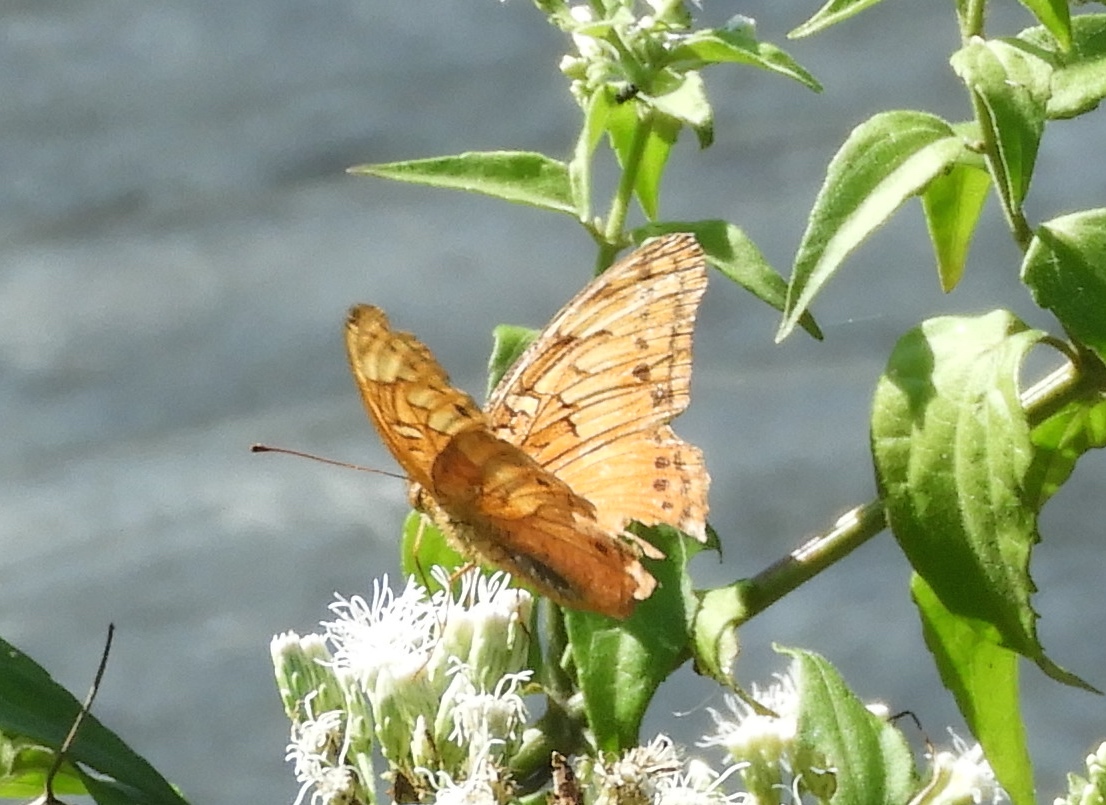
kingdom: Animalia
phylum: Arthropoda
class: Insecta
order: Lepidoptera
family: Nymphalidae
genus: Euptoieta
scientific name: Euptoieta hegesia
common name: Mexican fritillary
